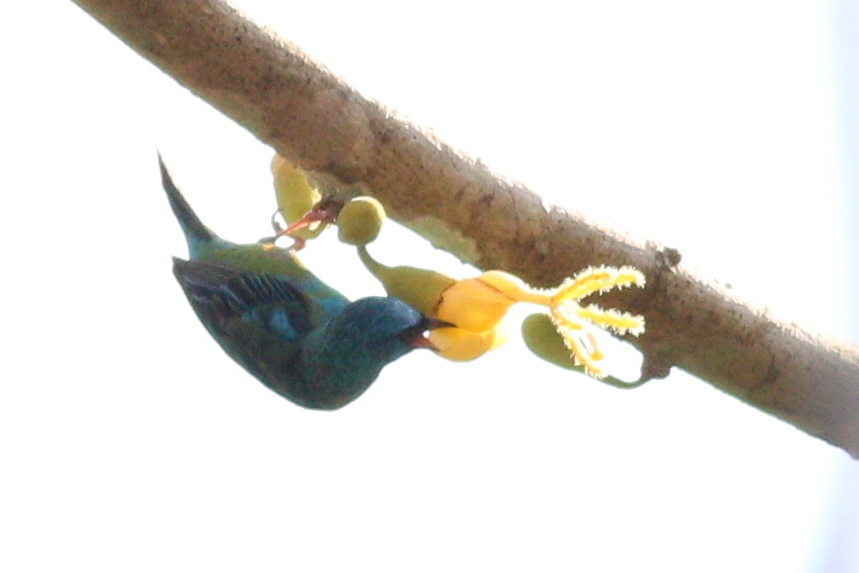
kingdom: Animalia
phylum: Chordata
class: Aves
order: Passeriformes
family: Thraupidae
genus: Dacnis
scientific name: Dacnis cayana
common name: Blue dacnis
